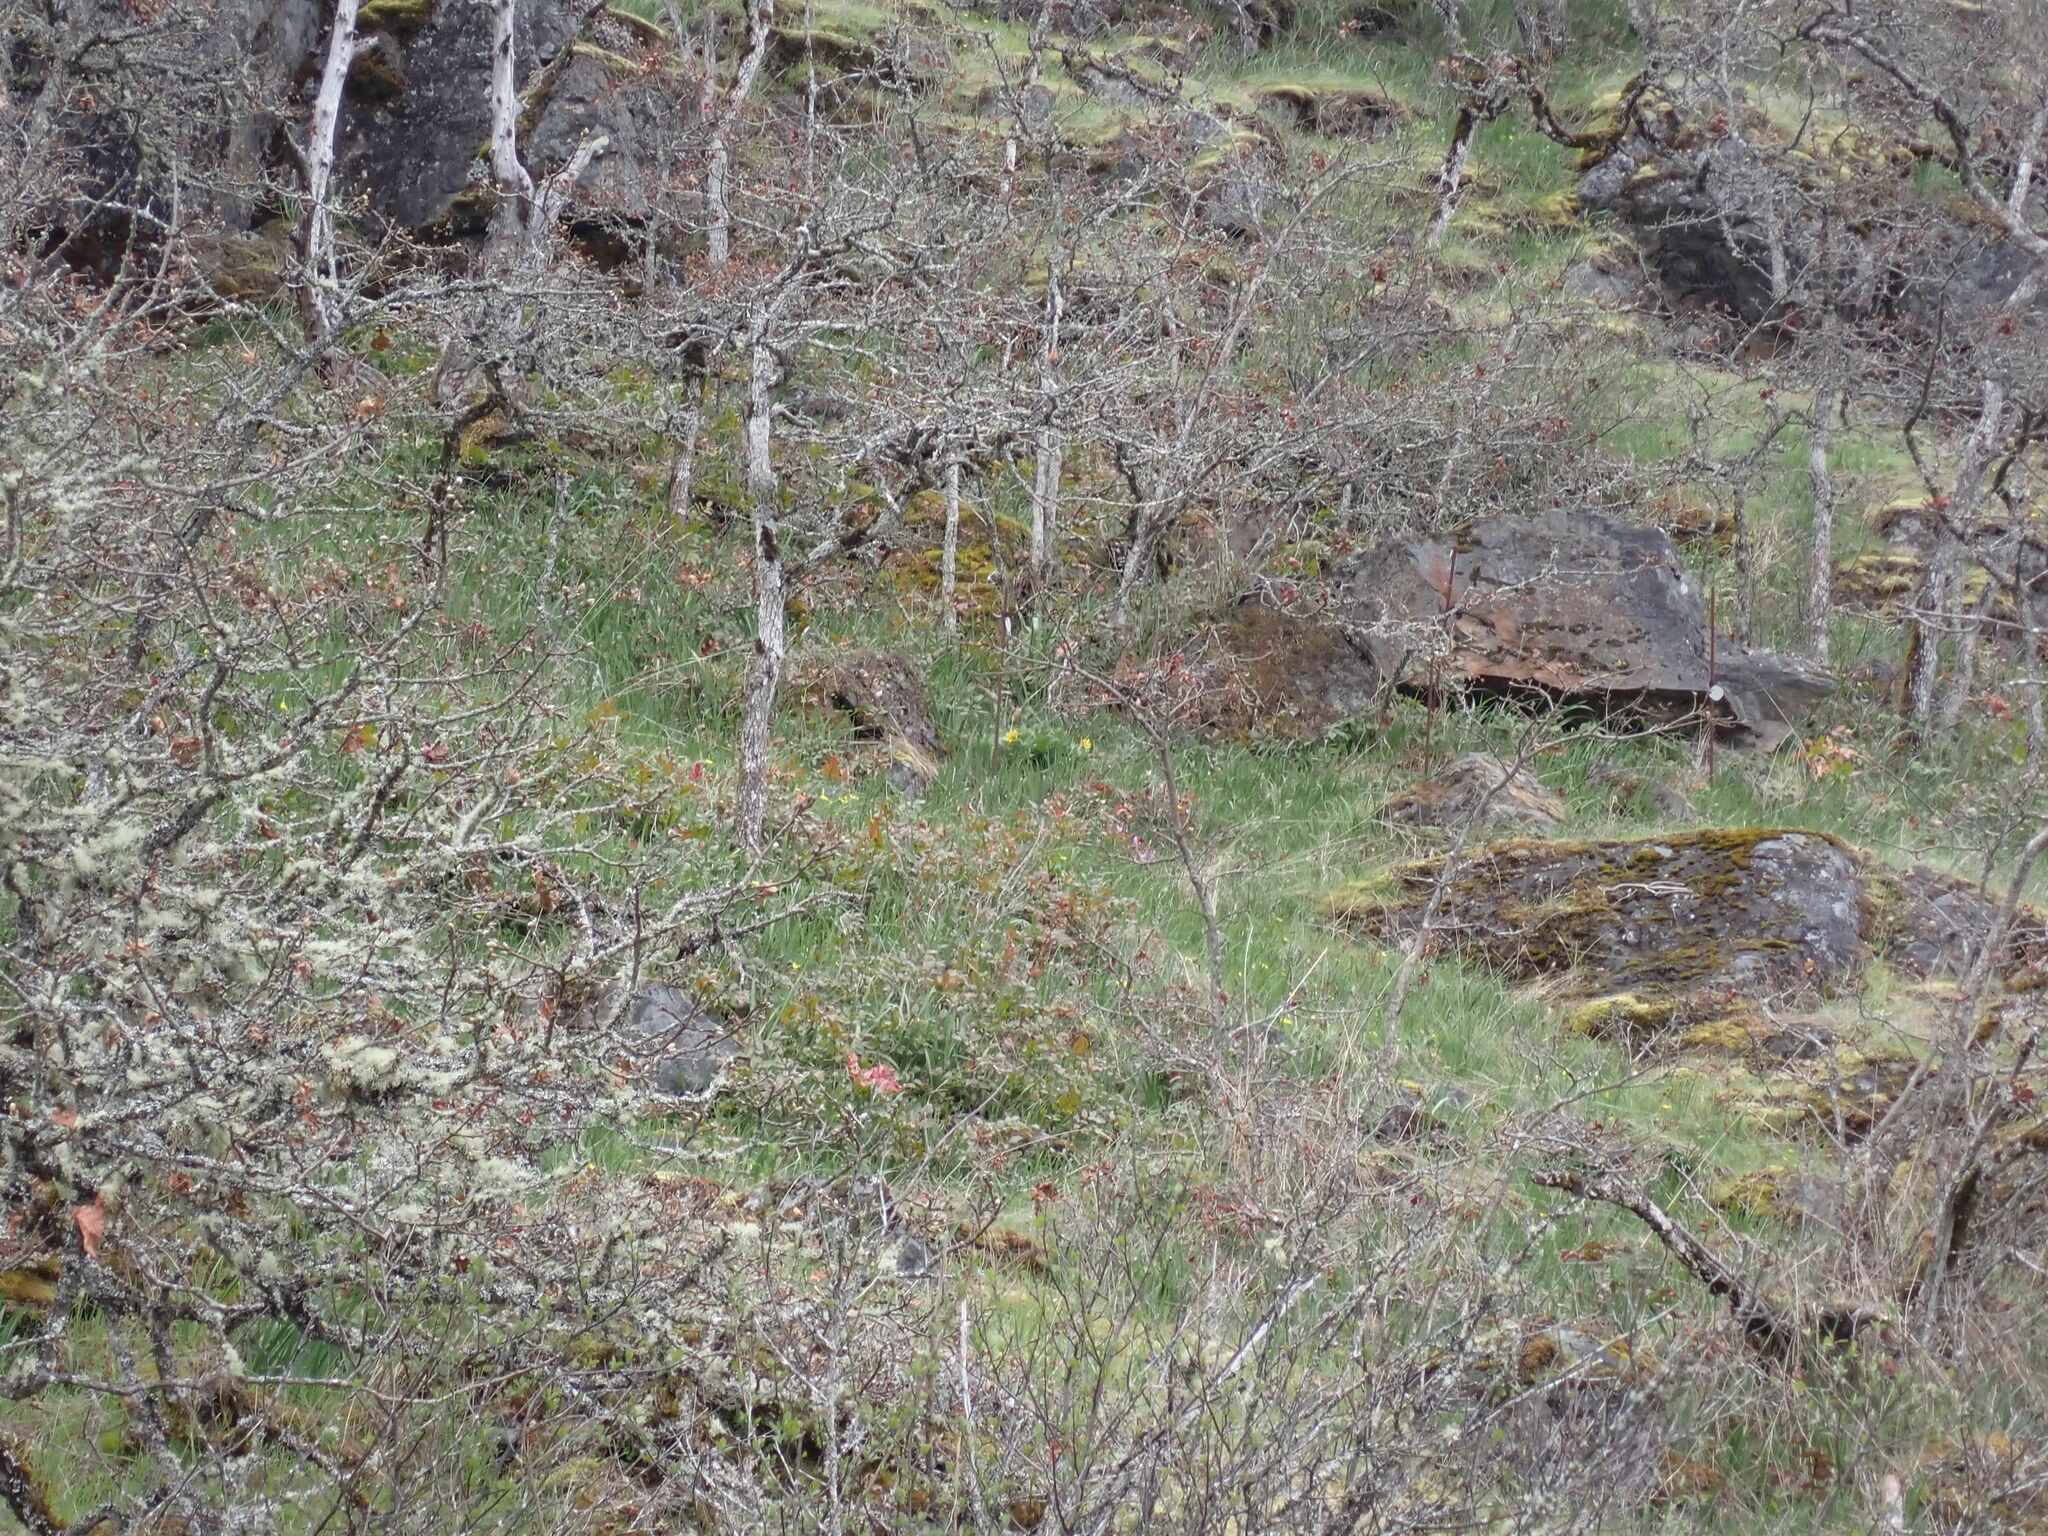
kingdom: Plantae
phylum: Tracheophyta
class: Magnoliopsida
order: Asterales
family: Asteraceae
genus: Balsamorhiza
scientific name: Balsamorhiza deltoidea
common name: Deltoid balsamroot
